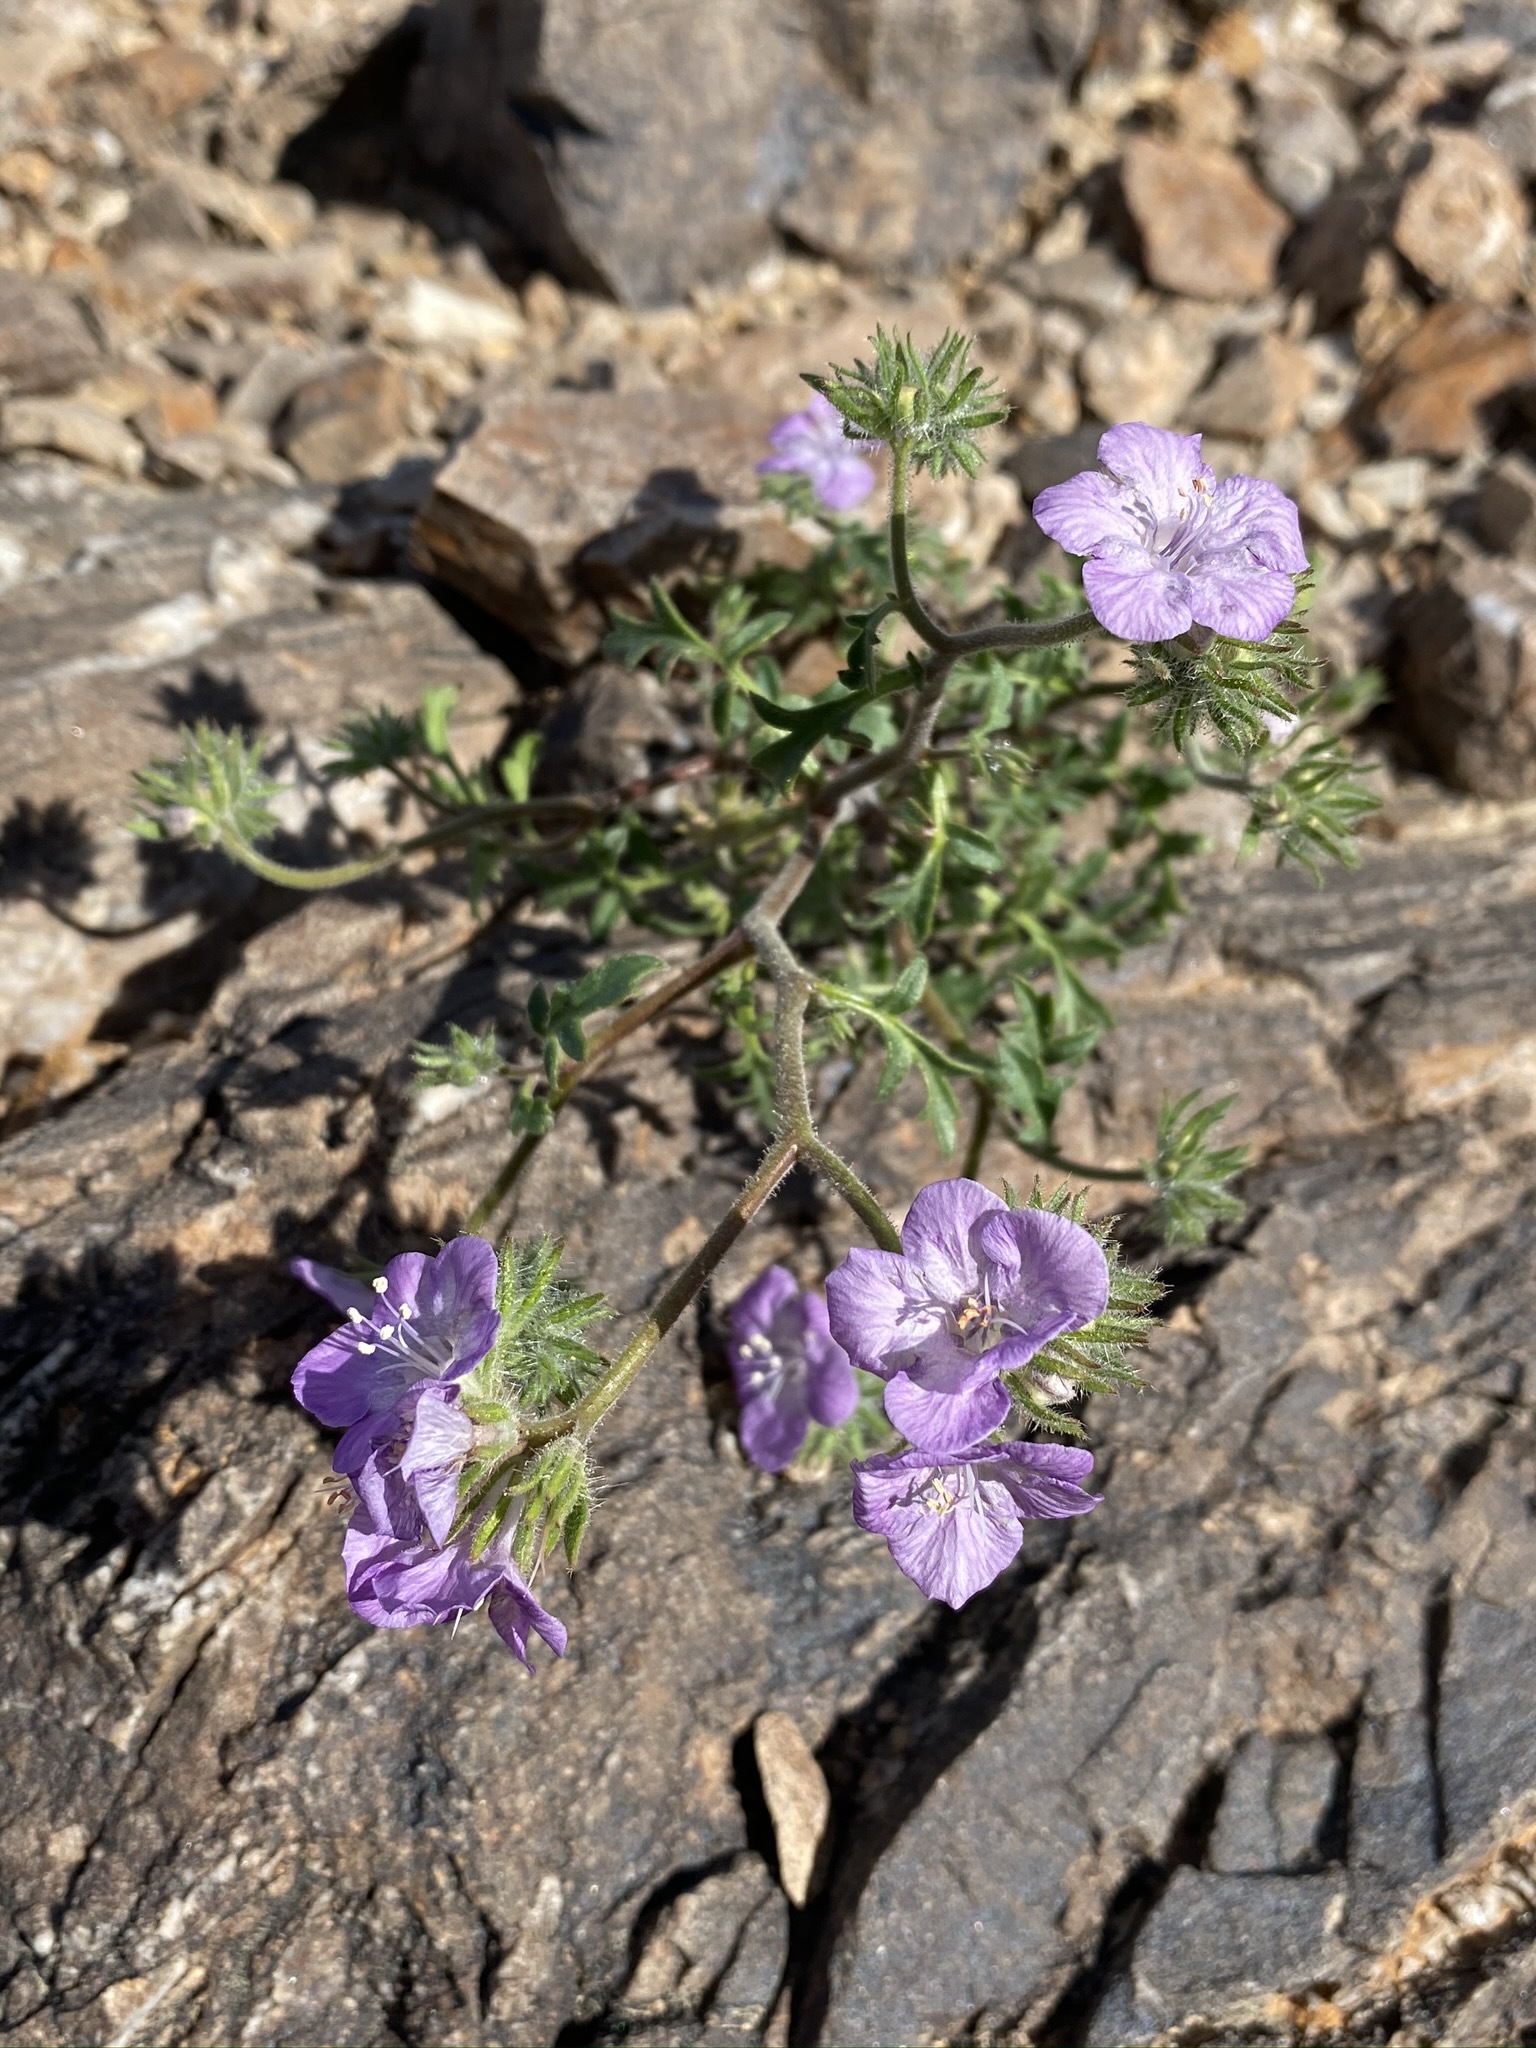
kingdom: Plantae
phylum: Tracheophyta
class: Magnoliopsida
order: Boraginales
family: Hydrophyllaceae
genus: Phacelia
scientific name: Phacelia vallis-mortae
